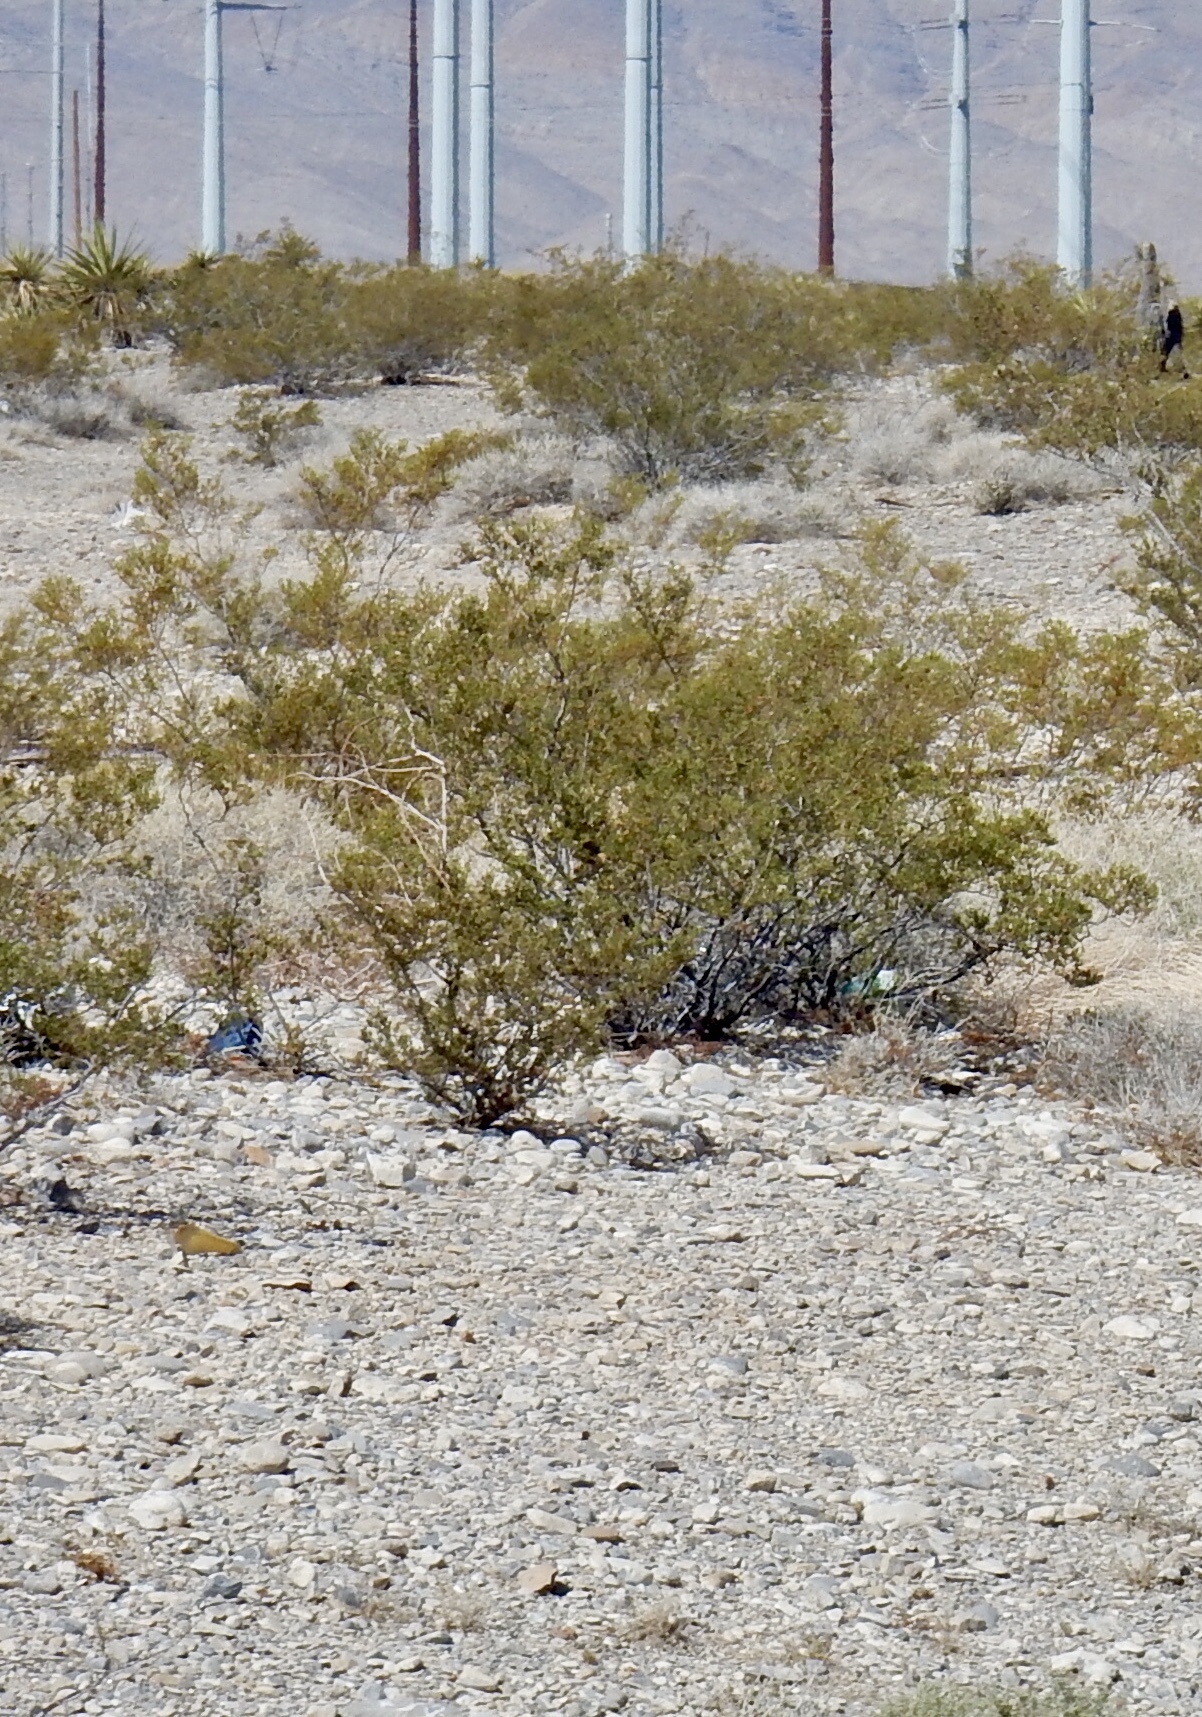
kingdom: Plantae
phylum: Tracheophyta
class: Magnoliopsida
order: Zygophyllales
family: Zygophyllaceae
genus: Larrea
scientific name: Larrea tridentata
